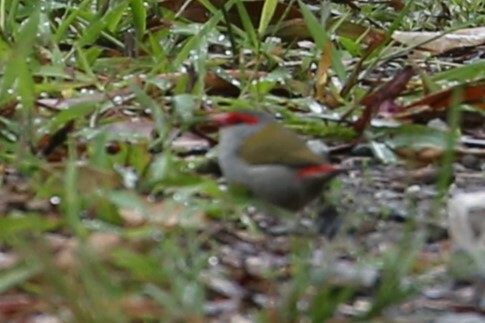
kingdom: Animalia
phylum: Chordata
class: Aves
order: Passeriformes
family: Estrildidae
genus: Neochmia
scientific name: Neochmia temporalis
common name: Red-browed finch
